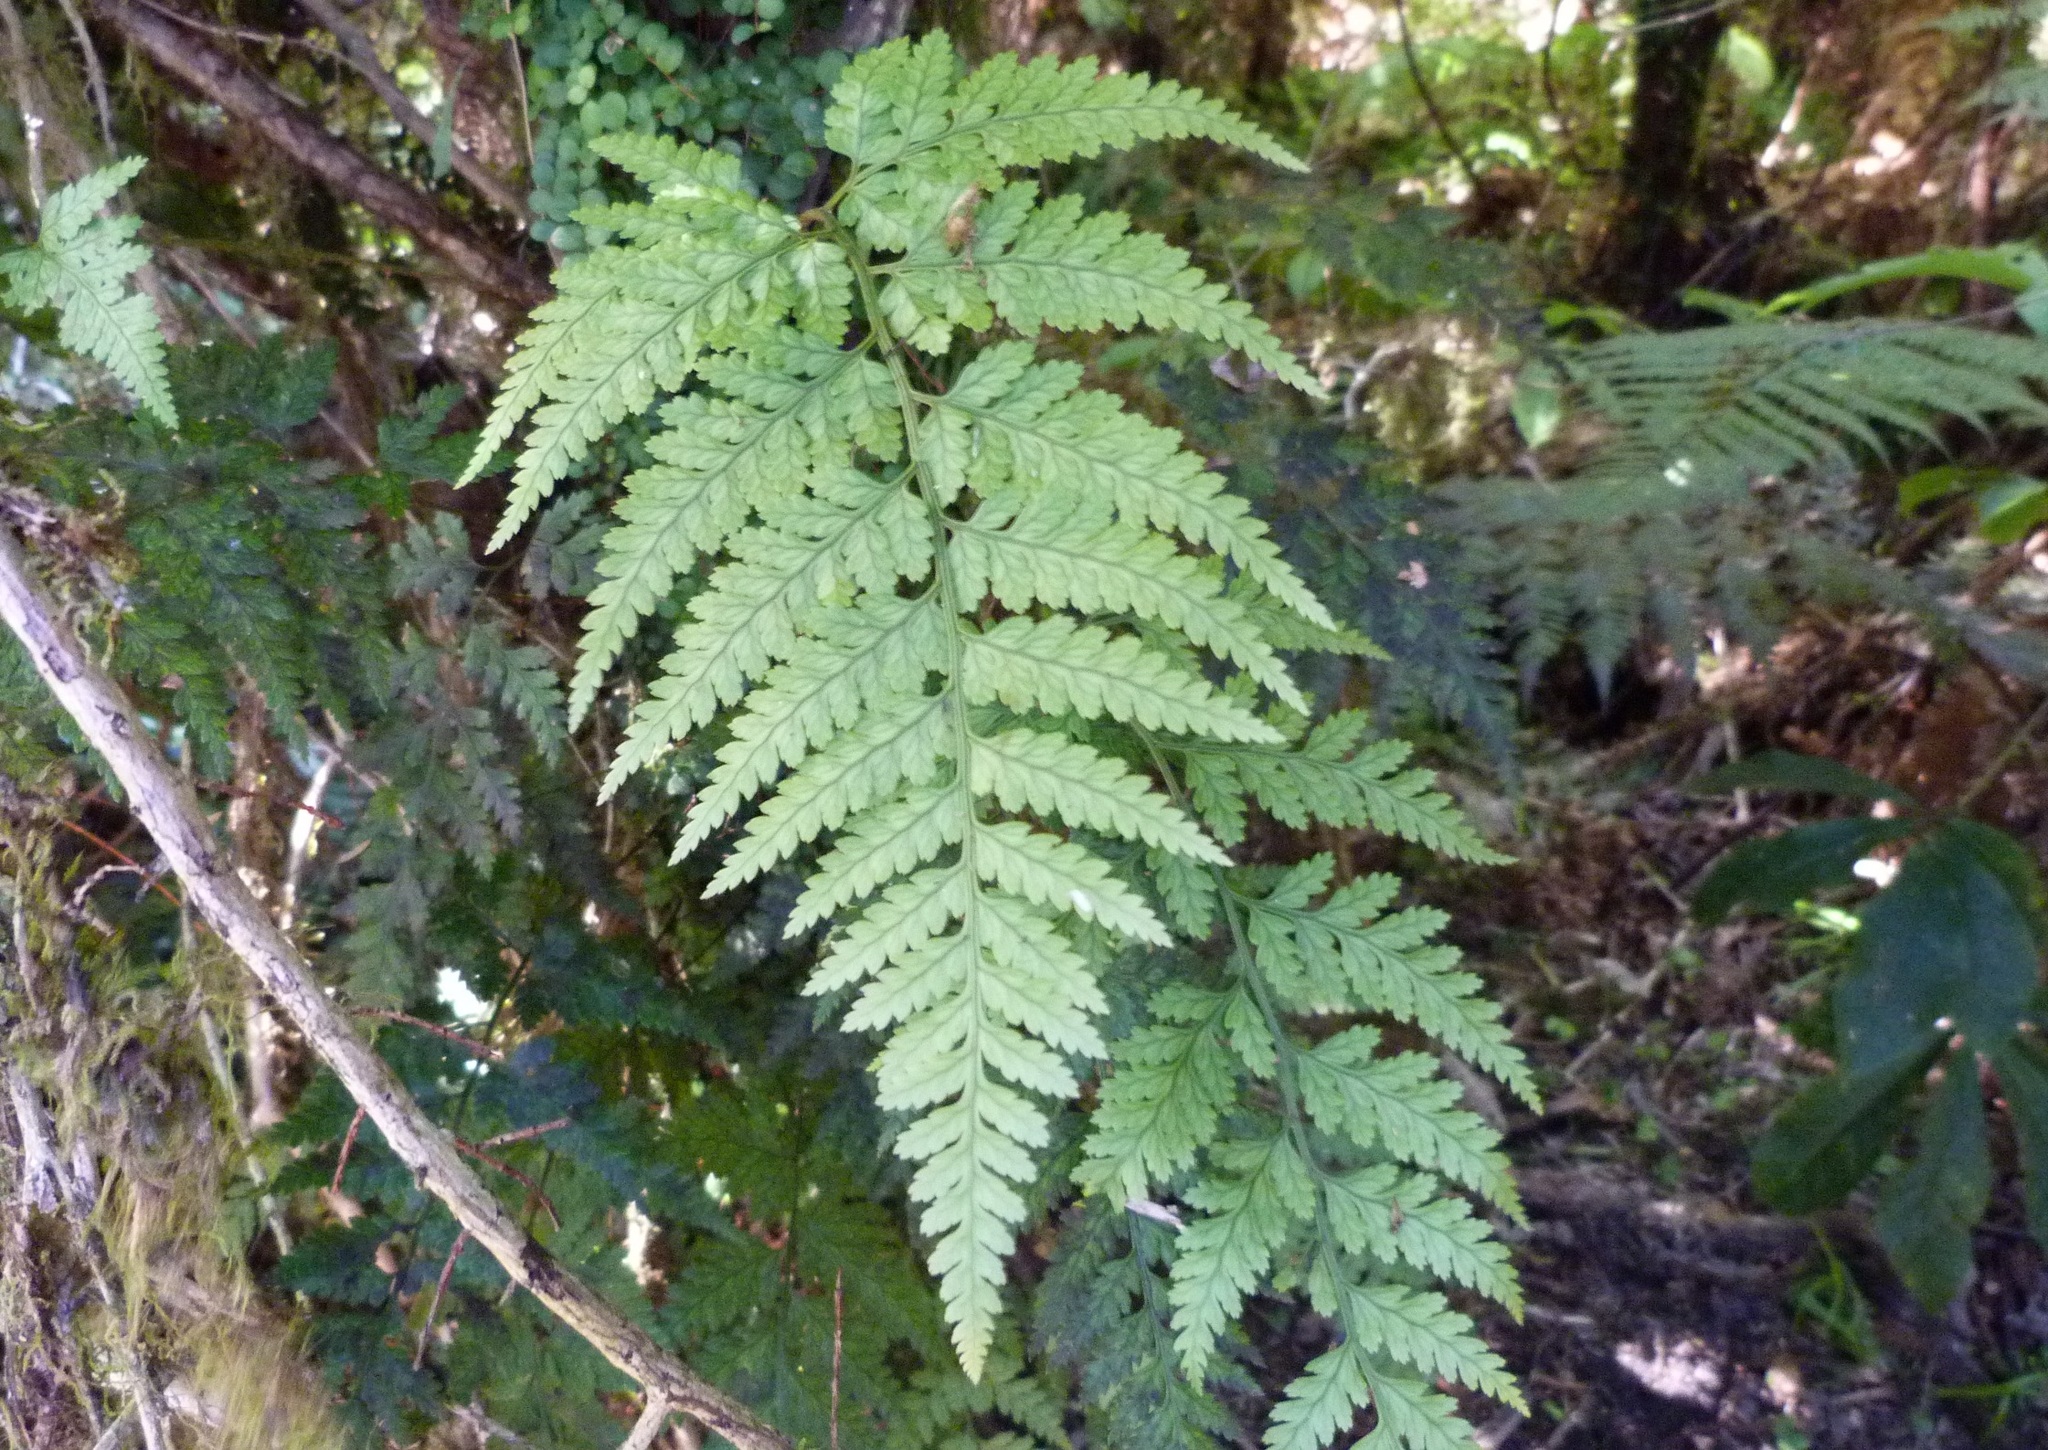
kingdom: Plantae
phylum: Tracheophyta
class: Polypodiopsida
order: Polypodiales
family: Dryopteridaceae
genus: Rumohra
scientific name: Rumohra adiantiformis
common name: Leather fern
